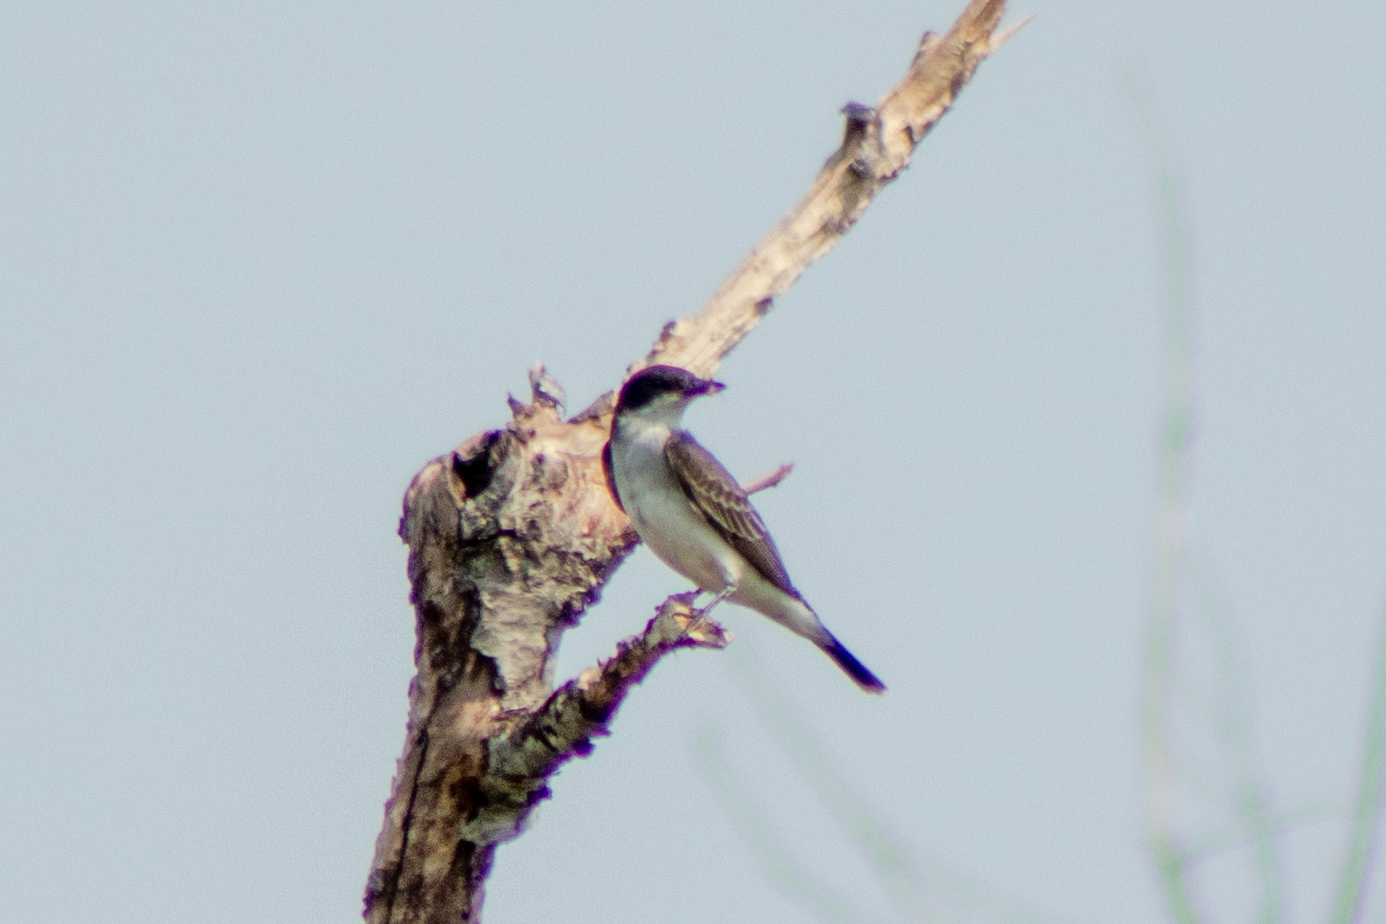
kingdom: Animalia
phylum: Chordata
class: Aves
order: Passeriformes
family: Tyrannidae
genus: Tyrannus
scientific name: Tyrannus tyrannus
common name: Eastern kingbird
